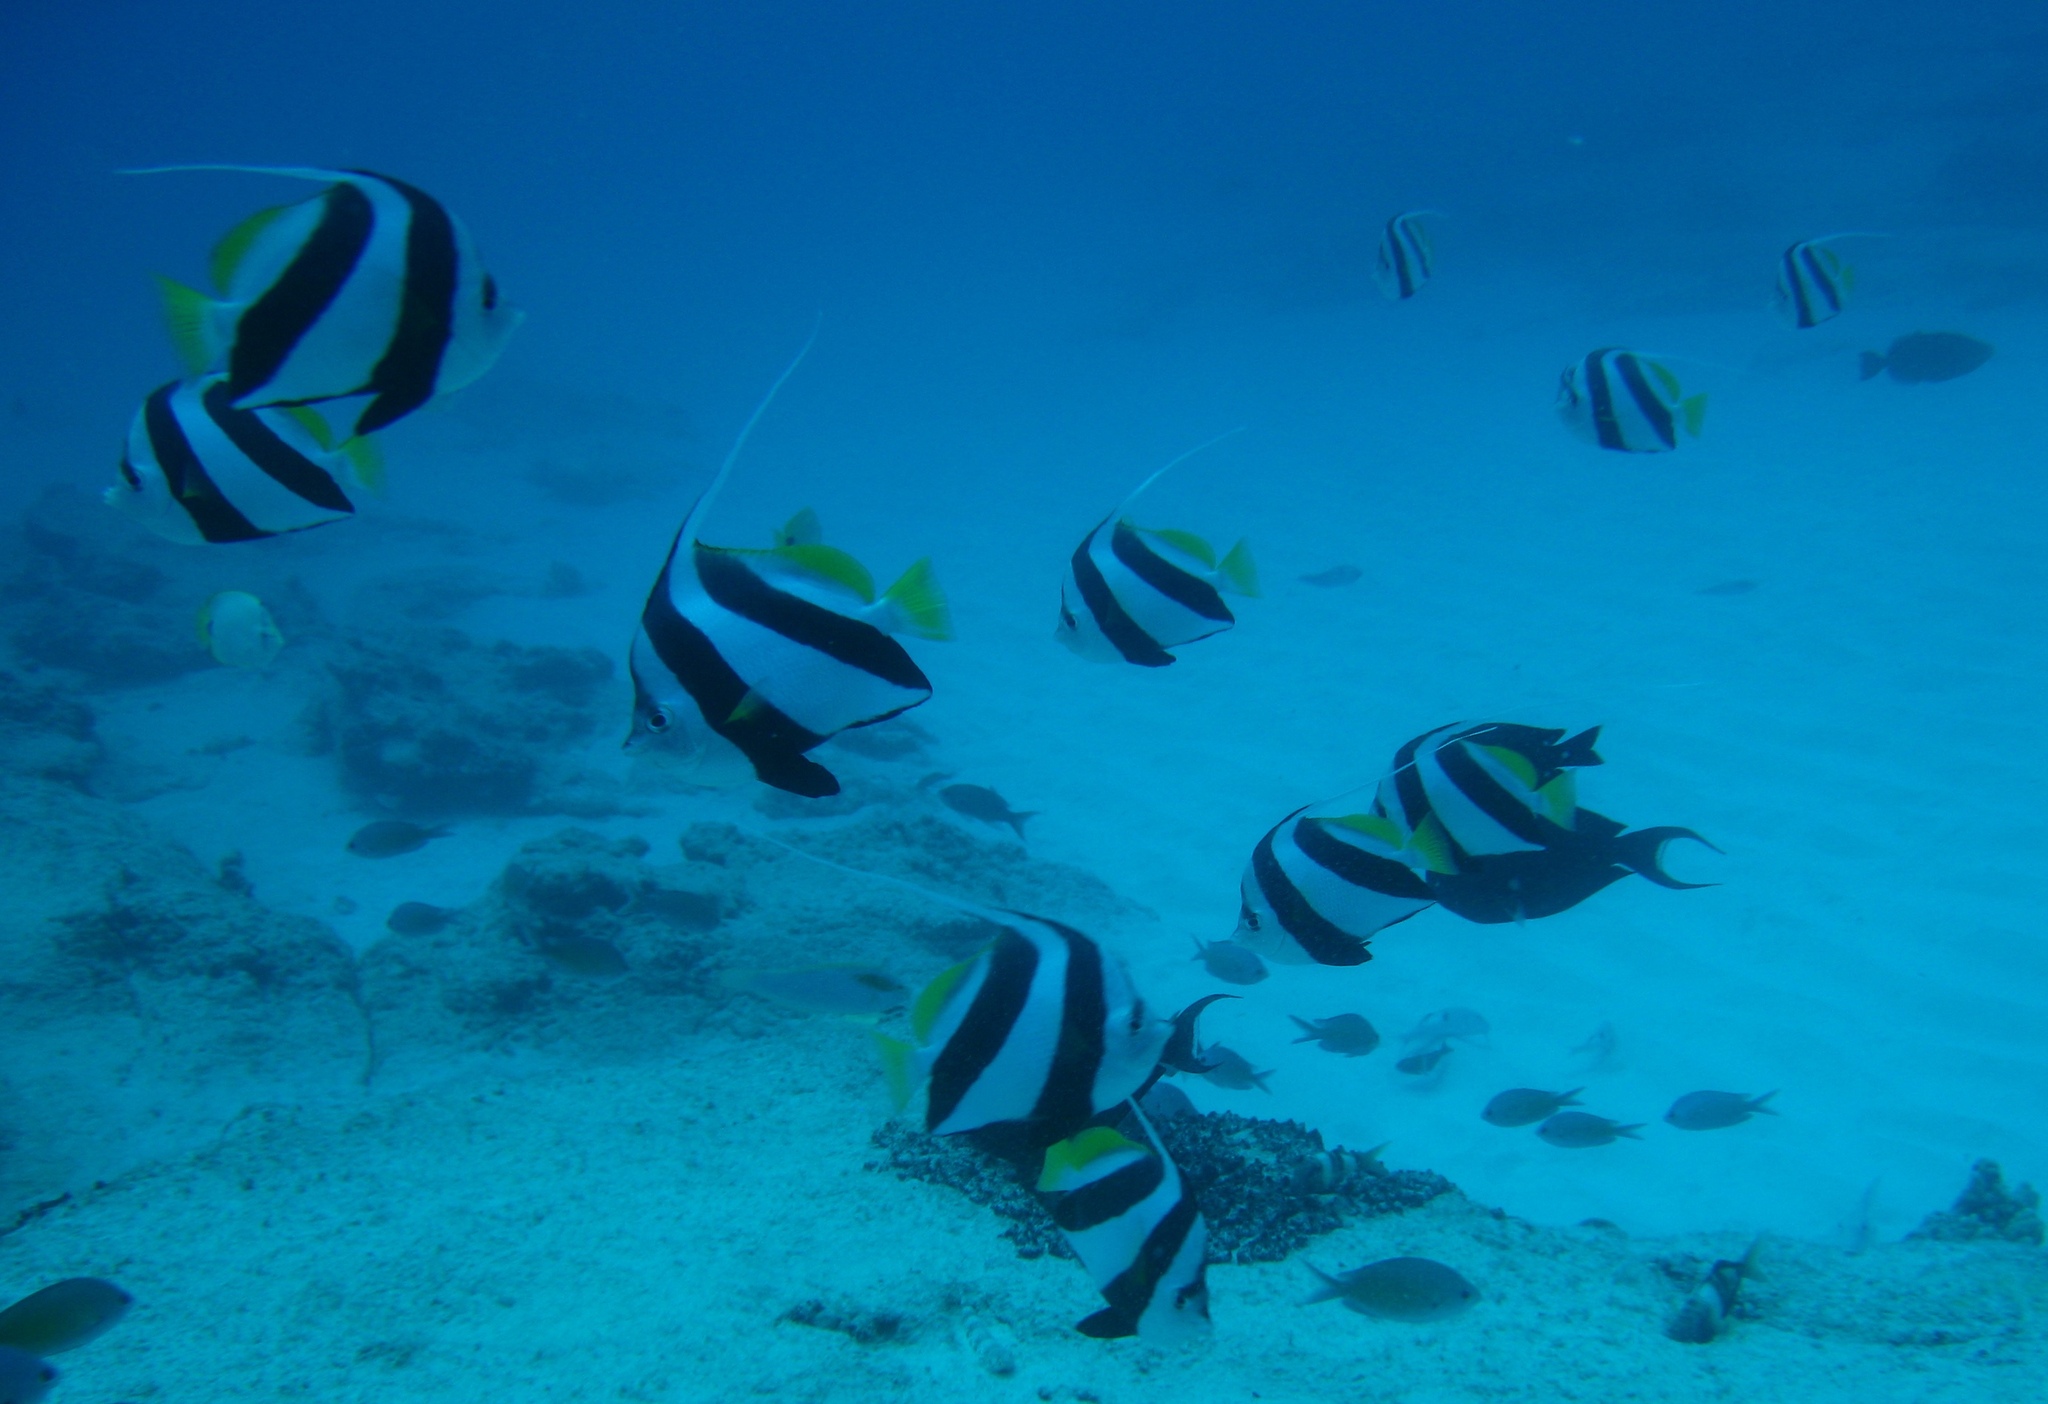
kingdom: Animalia
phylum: Chordata
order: Perciformes
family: Chaetodontidae
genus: Heniochus
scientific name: Heniochus diphreutes
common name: Pennantfish
